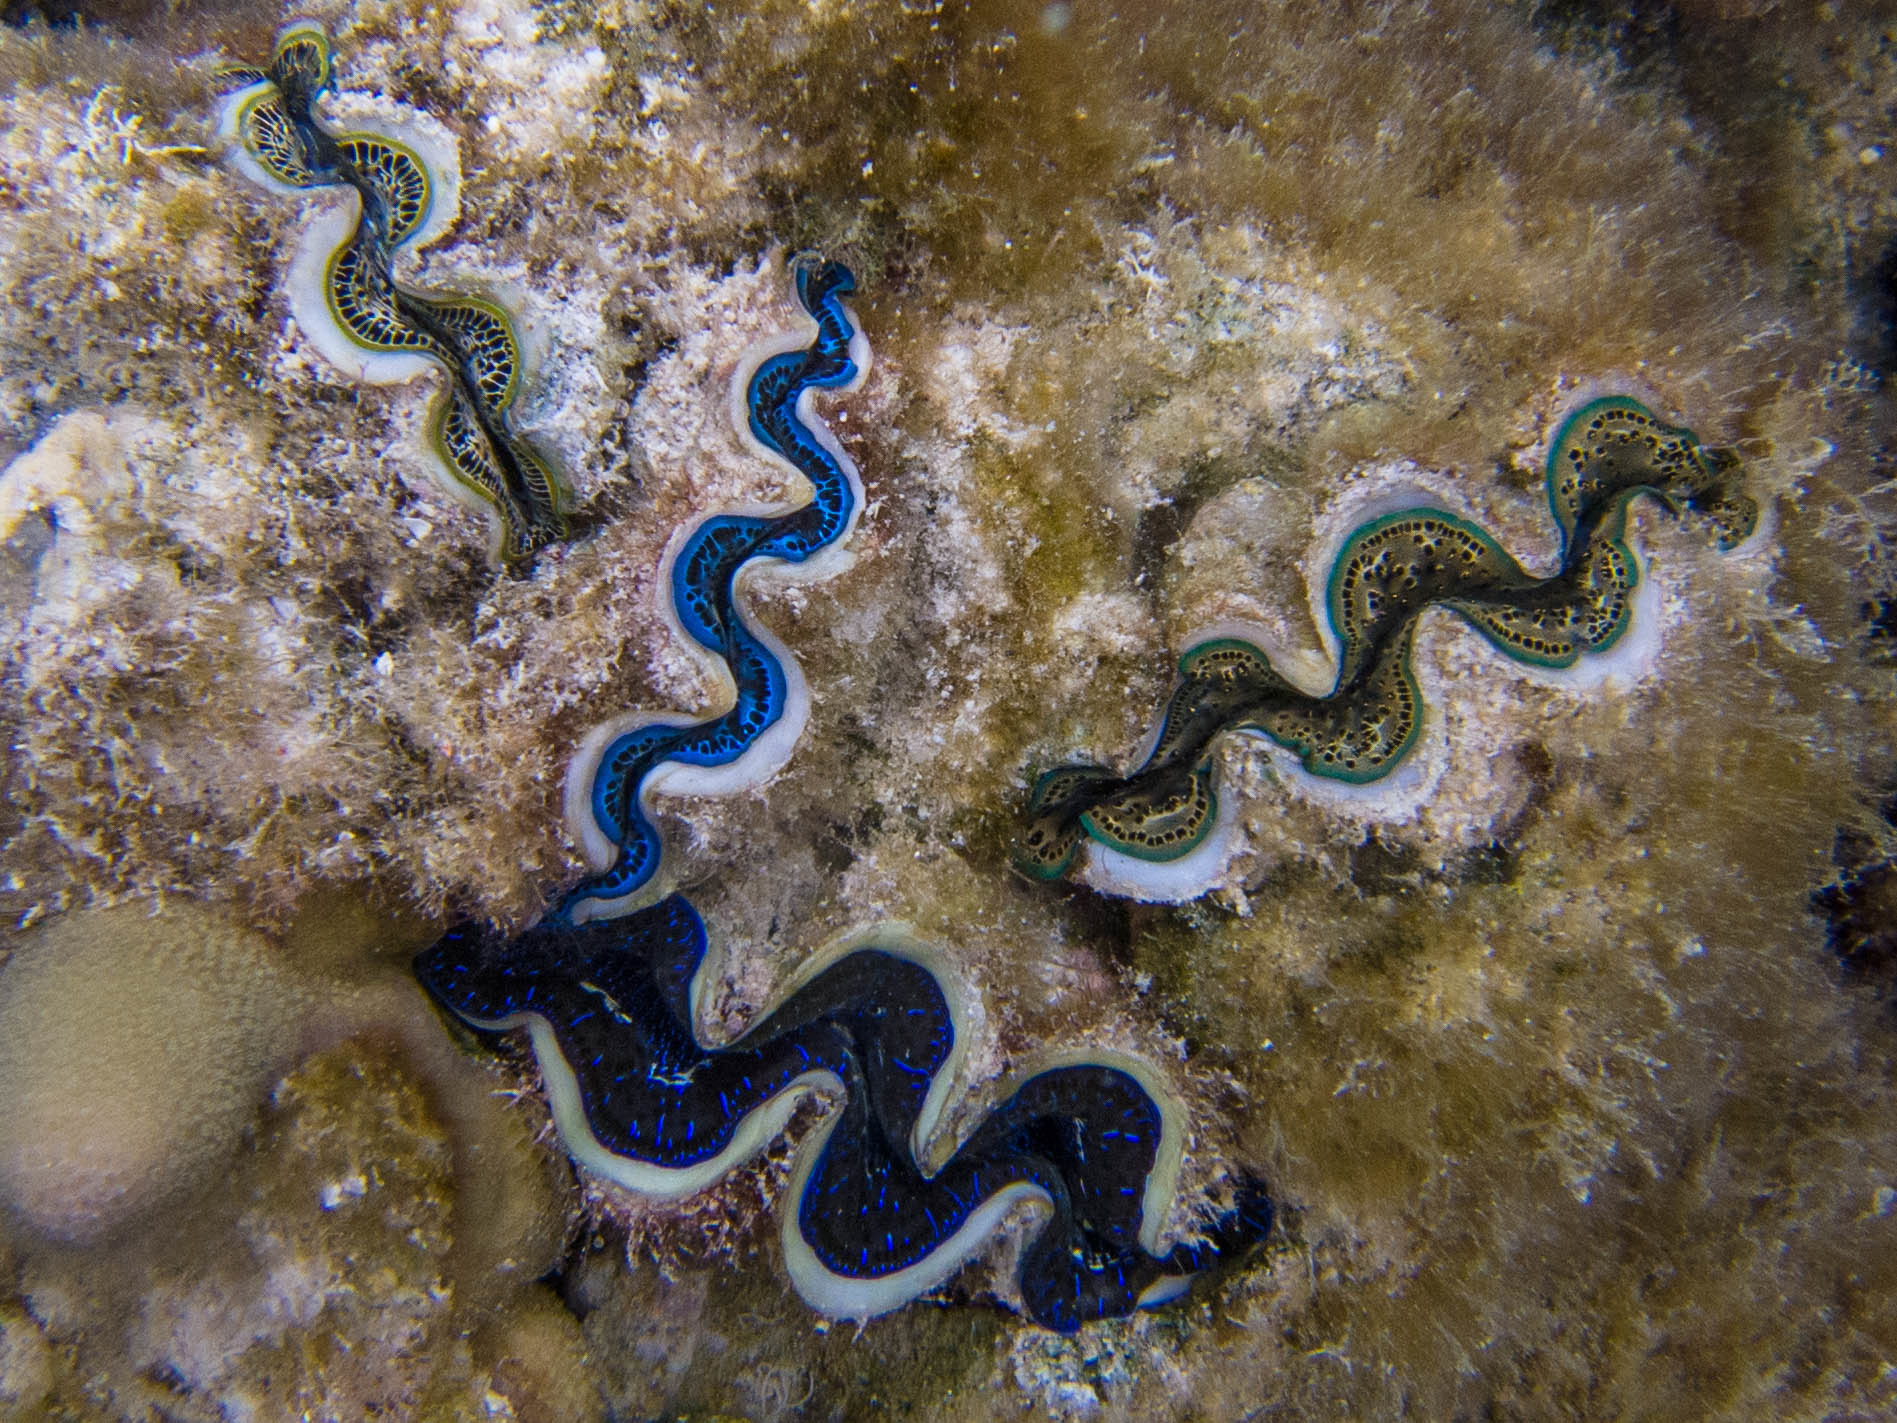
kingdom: Animalia
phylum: Mollusca
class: Bivalvia
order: Cardiida
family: Cardiidae
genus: Tridacna
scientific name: Tridacna
